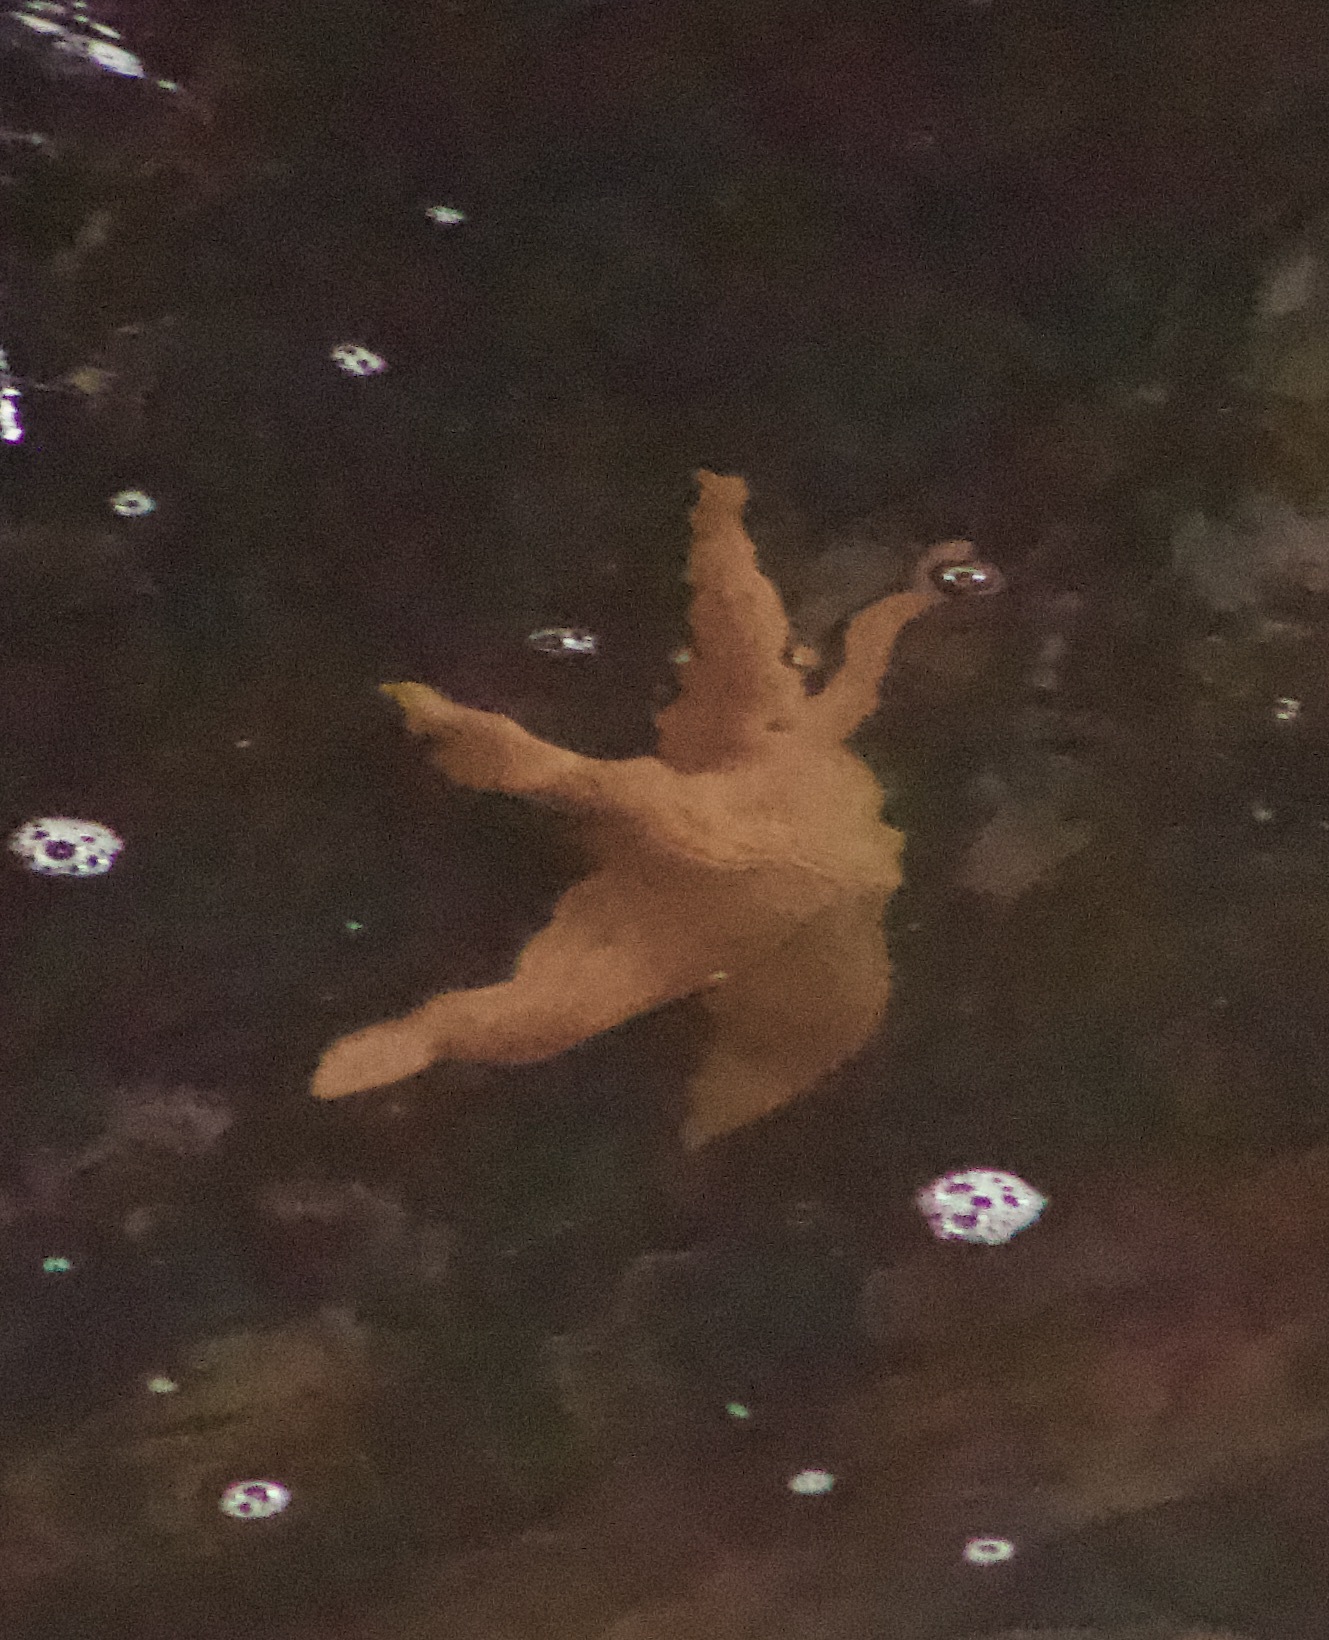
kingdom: Animalia
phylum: Echinodermata
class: Asteroidea
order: Forcipulatida
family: Stichasteridae
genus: Stichaster
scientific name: Stichaster striatus
